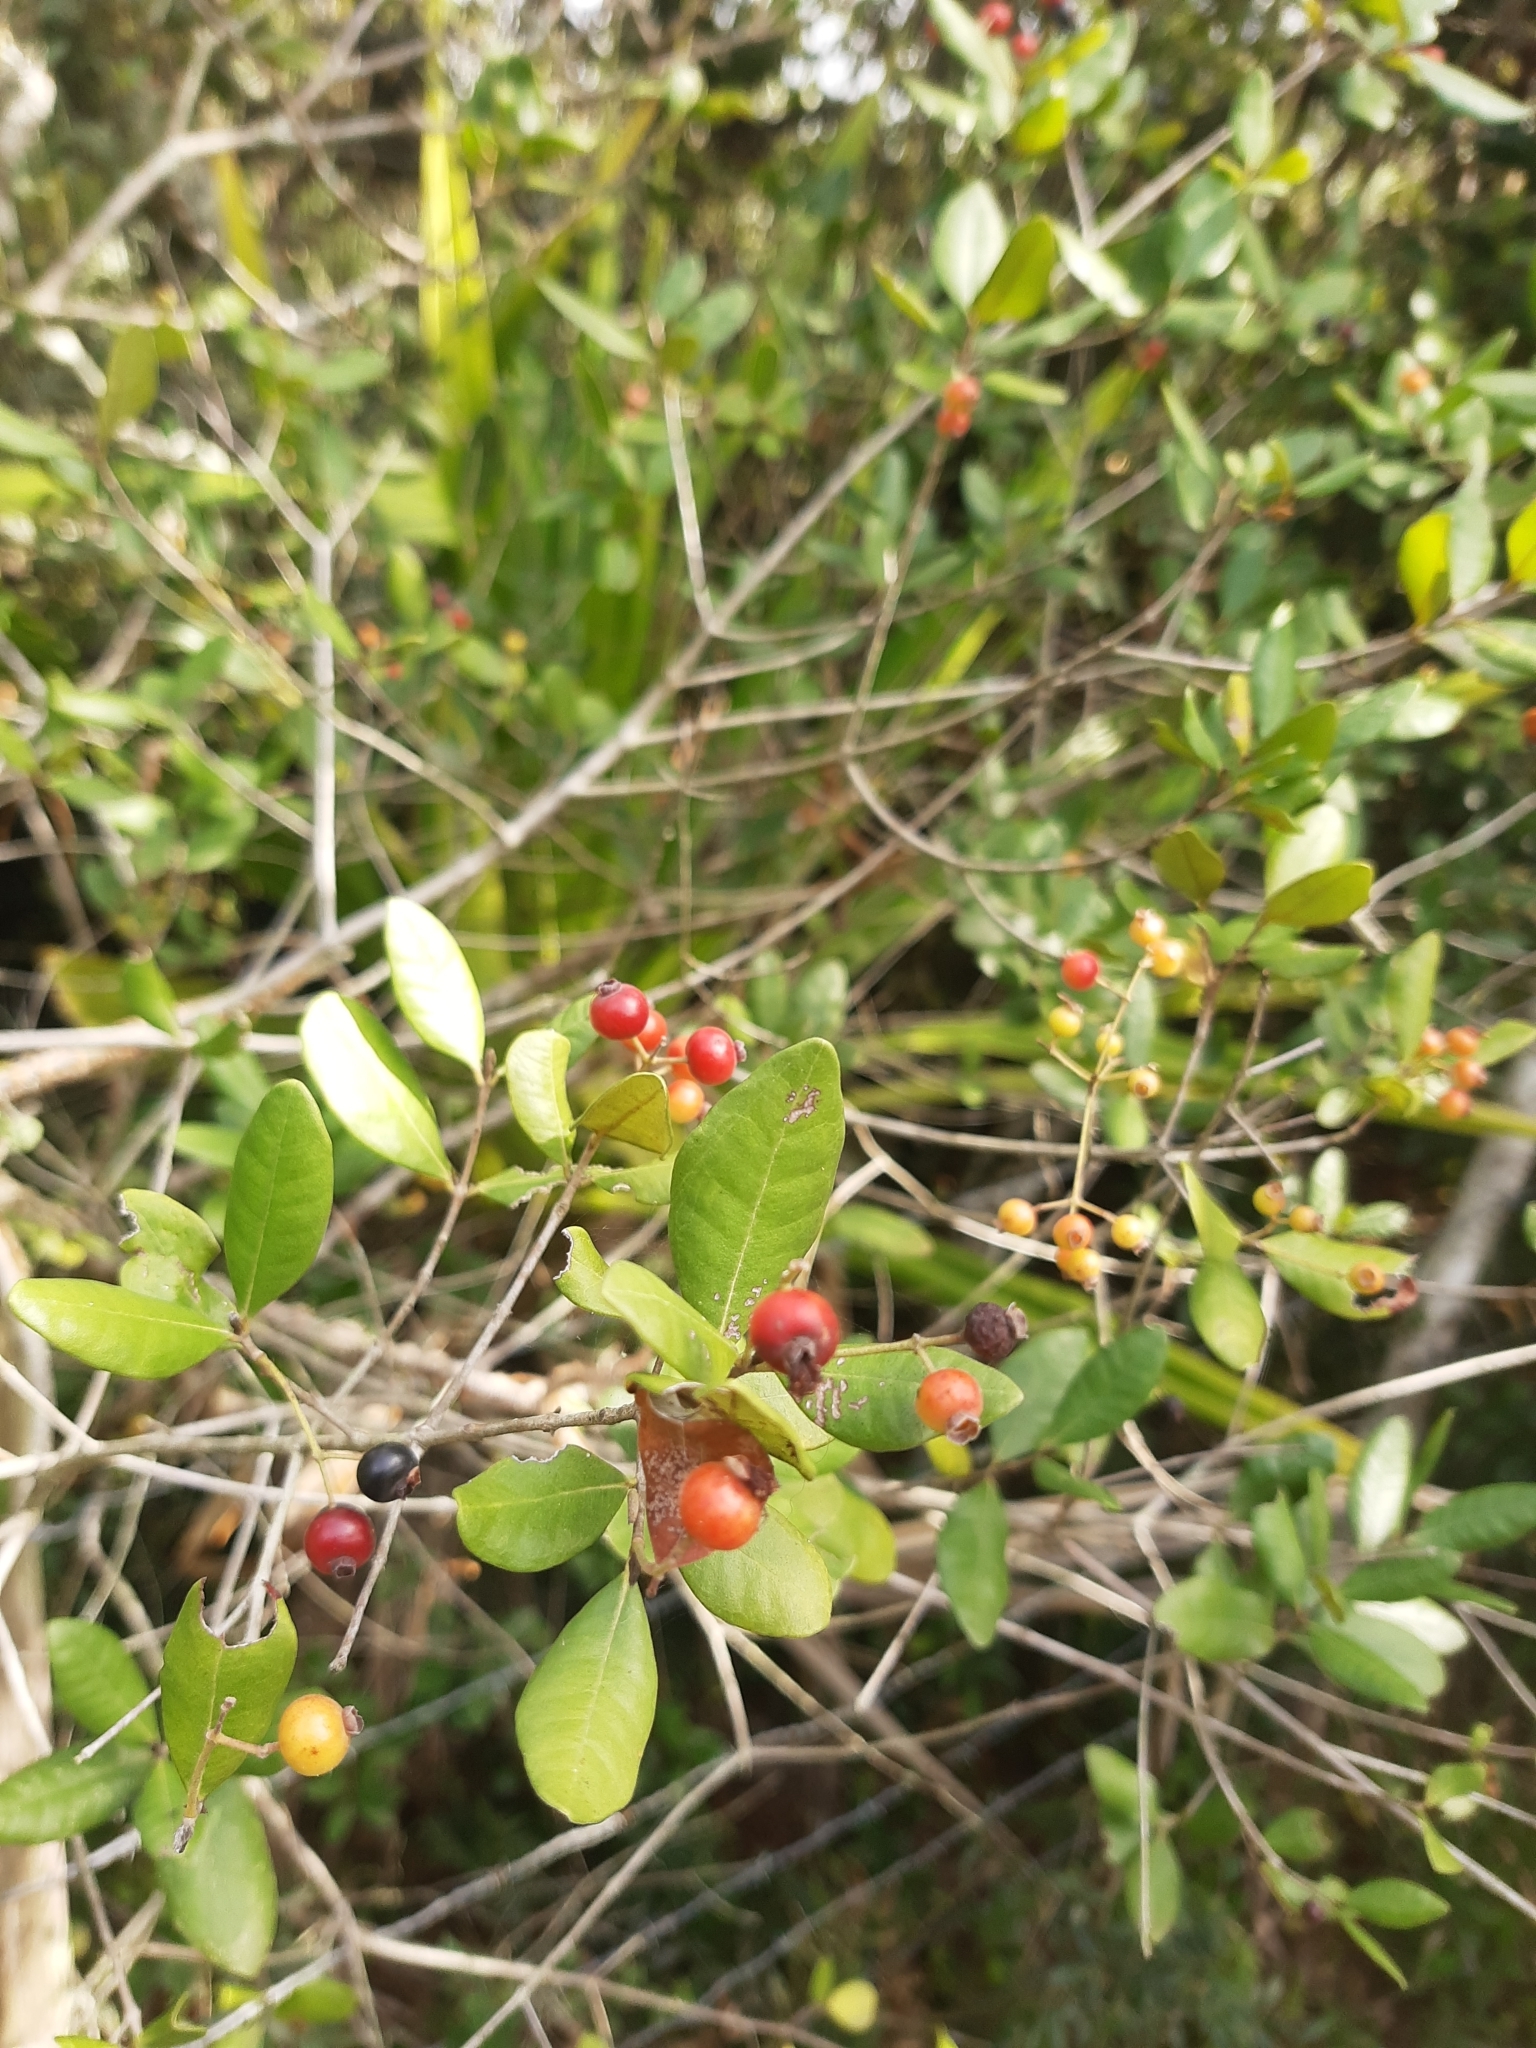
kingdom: Plantae
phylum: Tracheophyta
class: Magnoliopsida
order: Myrtales
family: Myrtaceae
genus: Myrcia
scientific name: Myrcia palustris
